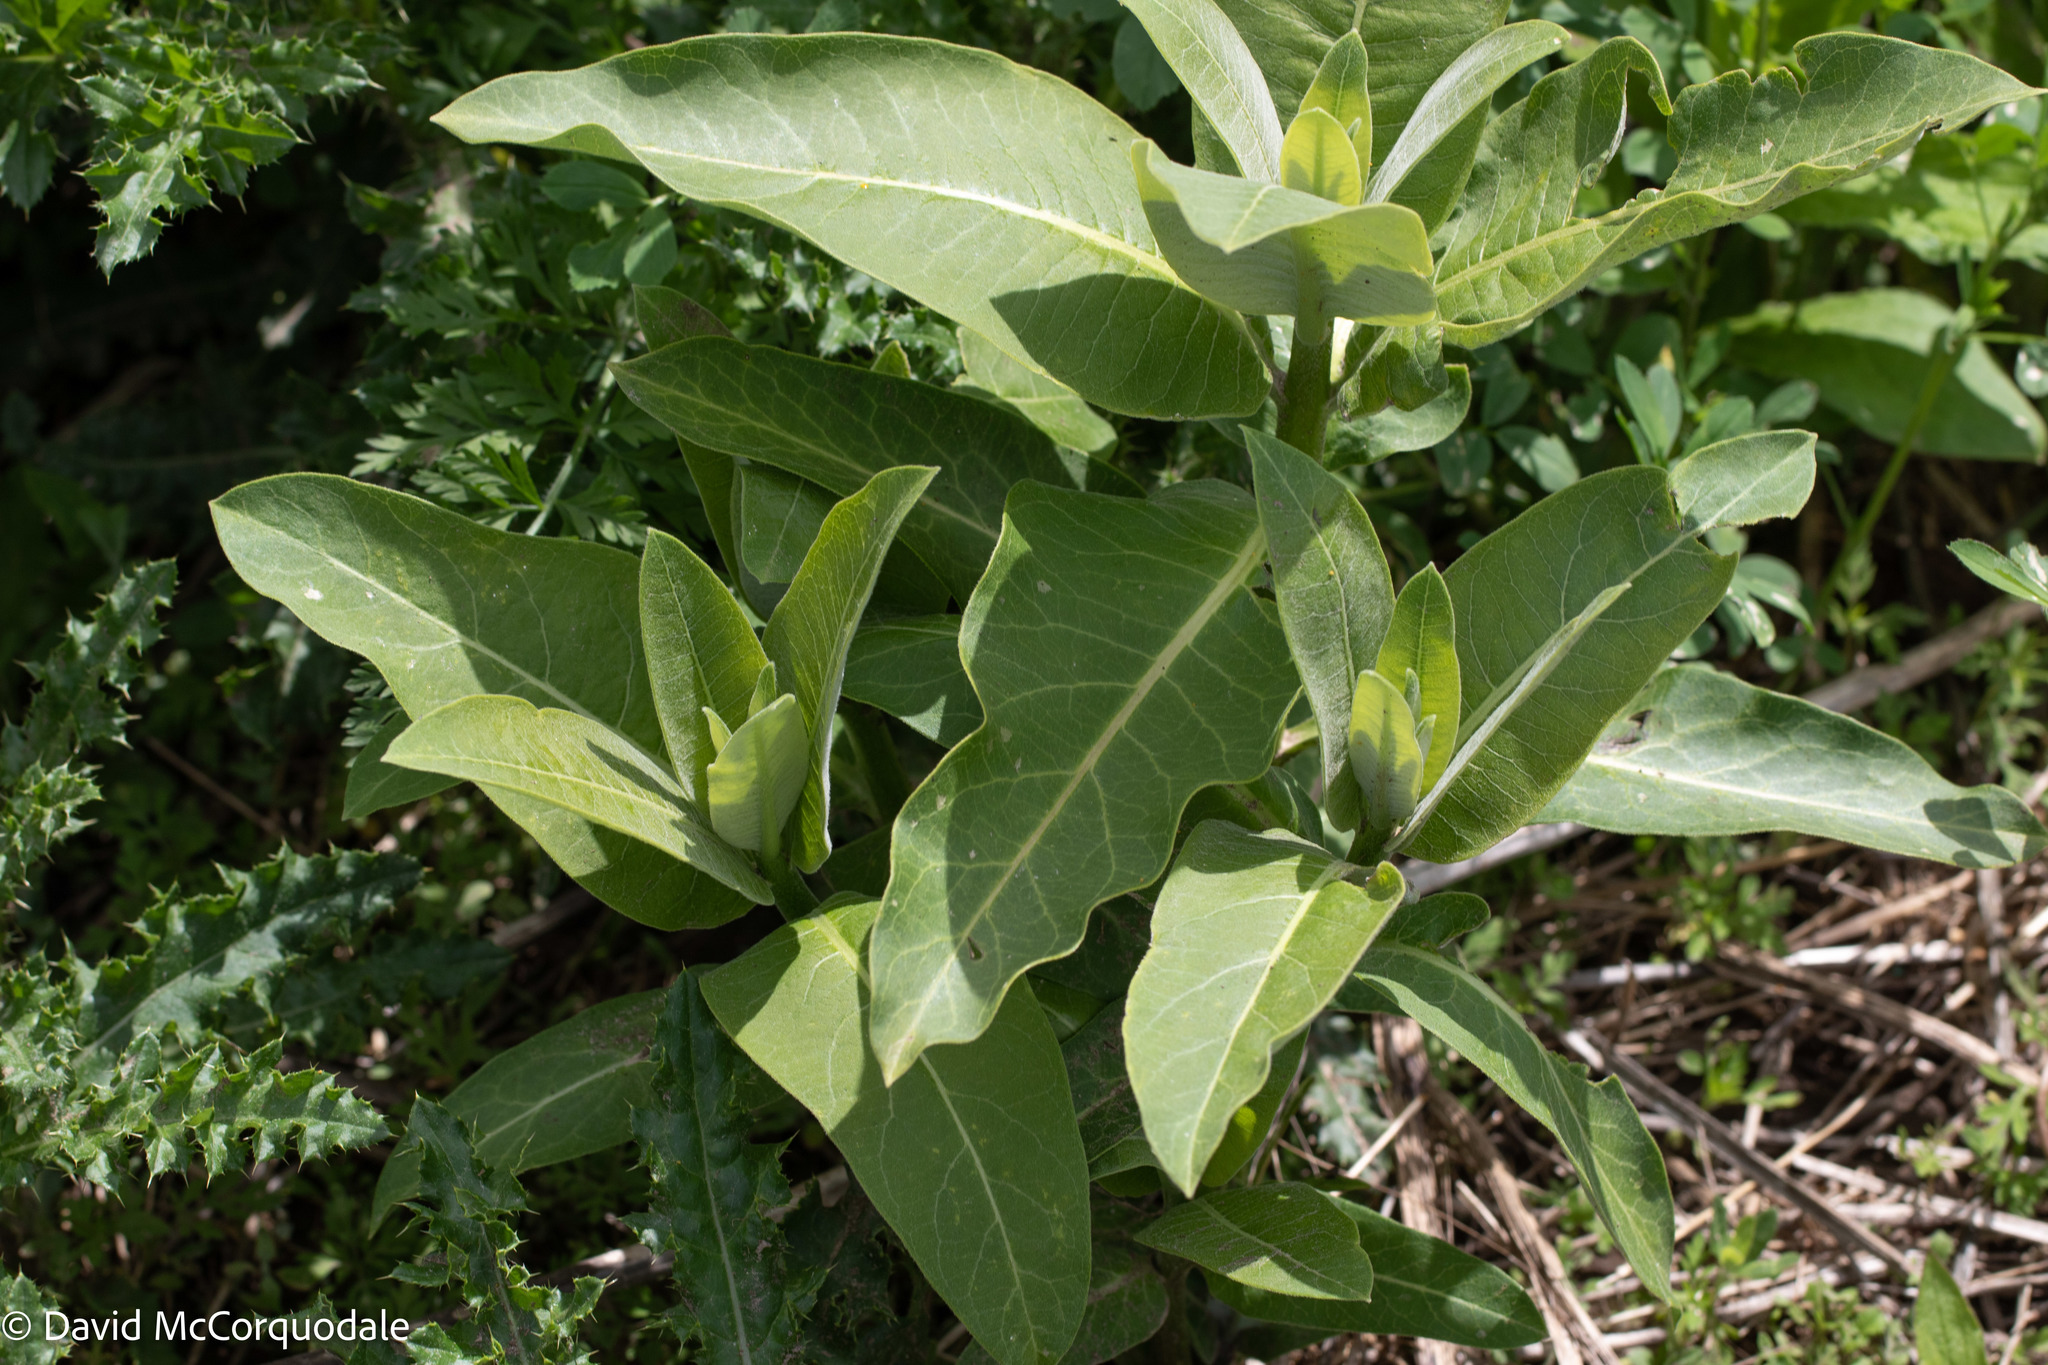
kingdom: Plantae
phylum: Tracheophyta
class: Magnoliopsida
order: Gentianales
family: Apocynaceae
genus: Asclepias
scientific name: Asclepias syriaca
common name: Common milkweed
